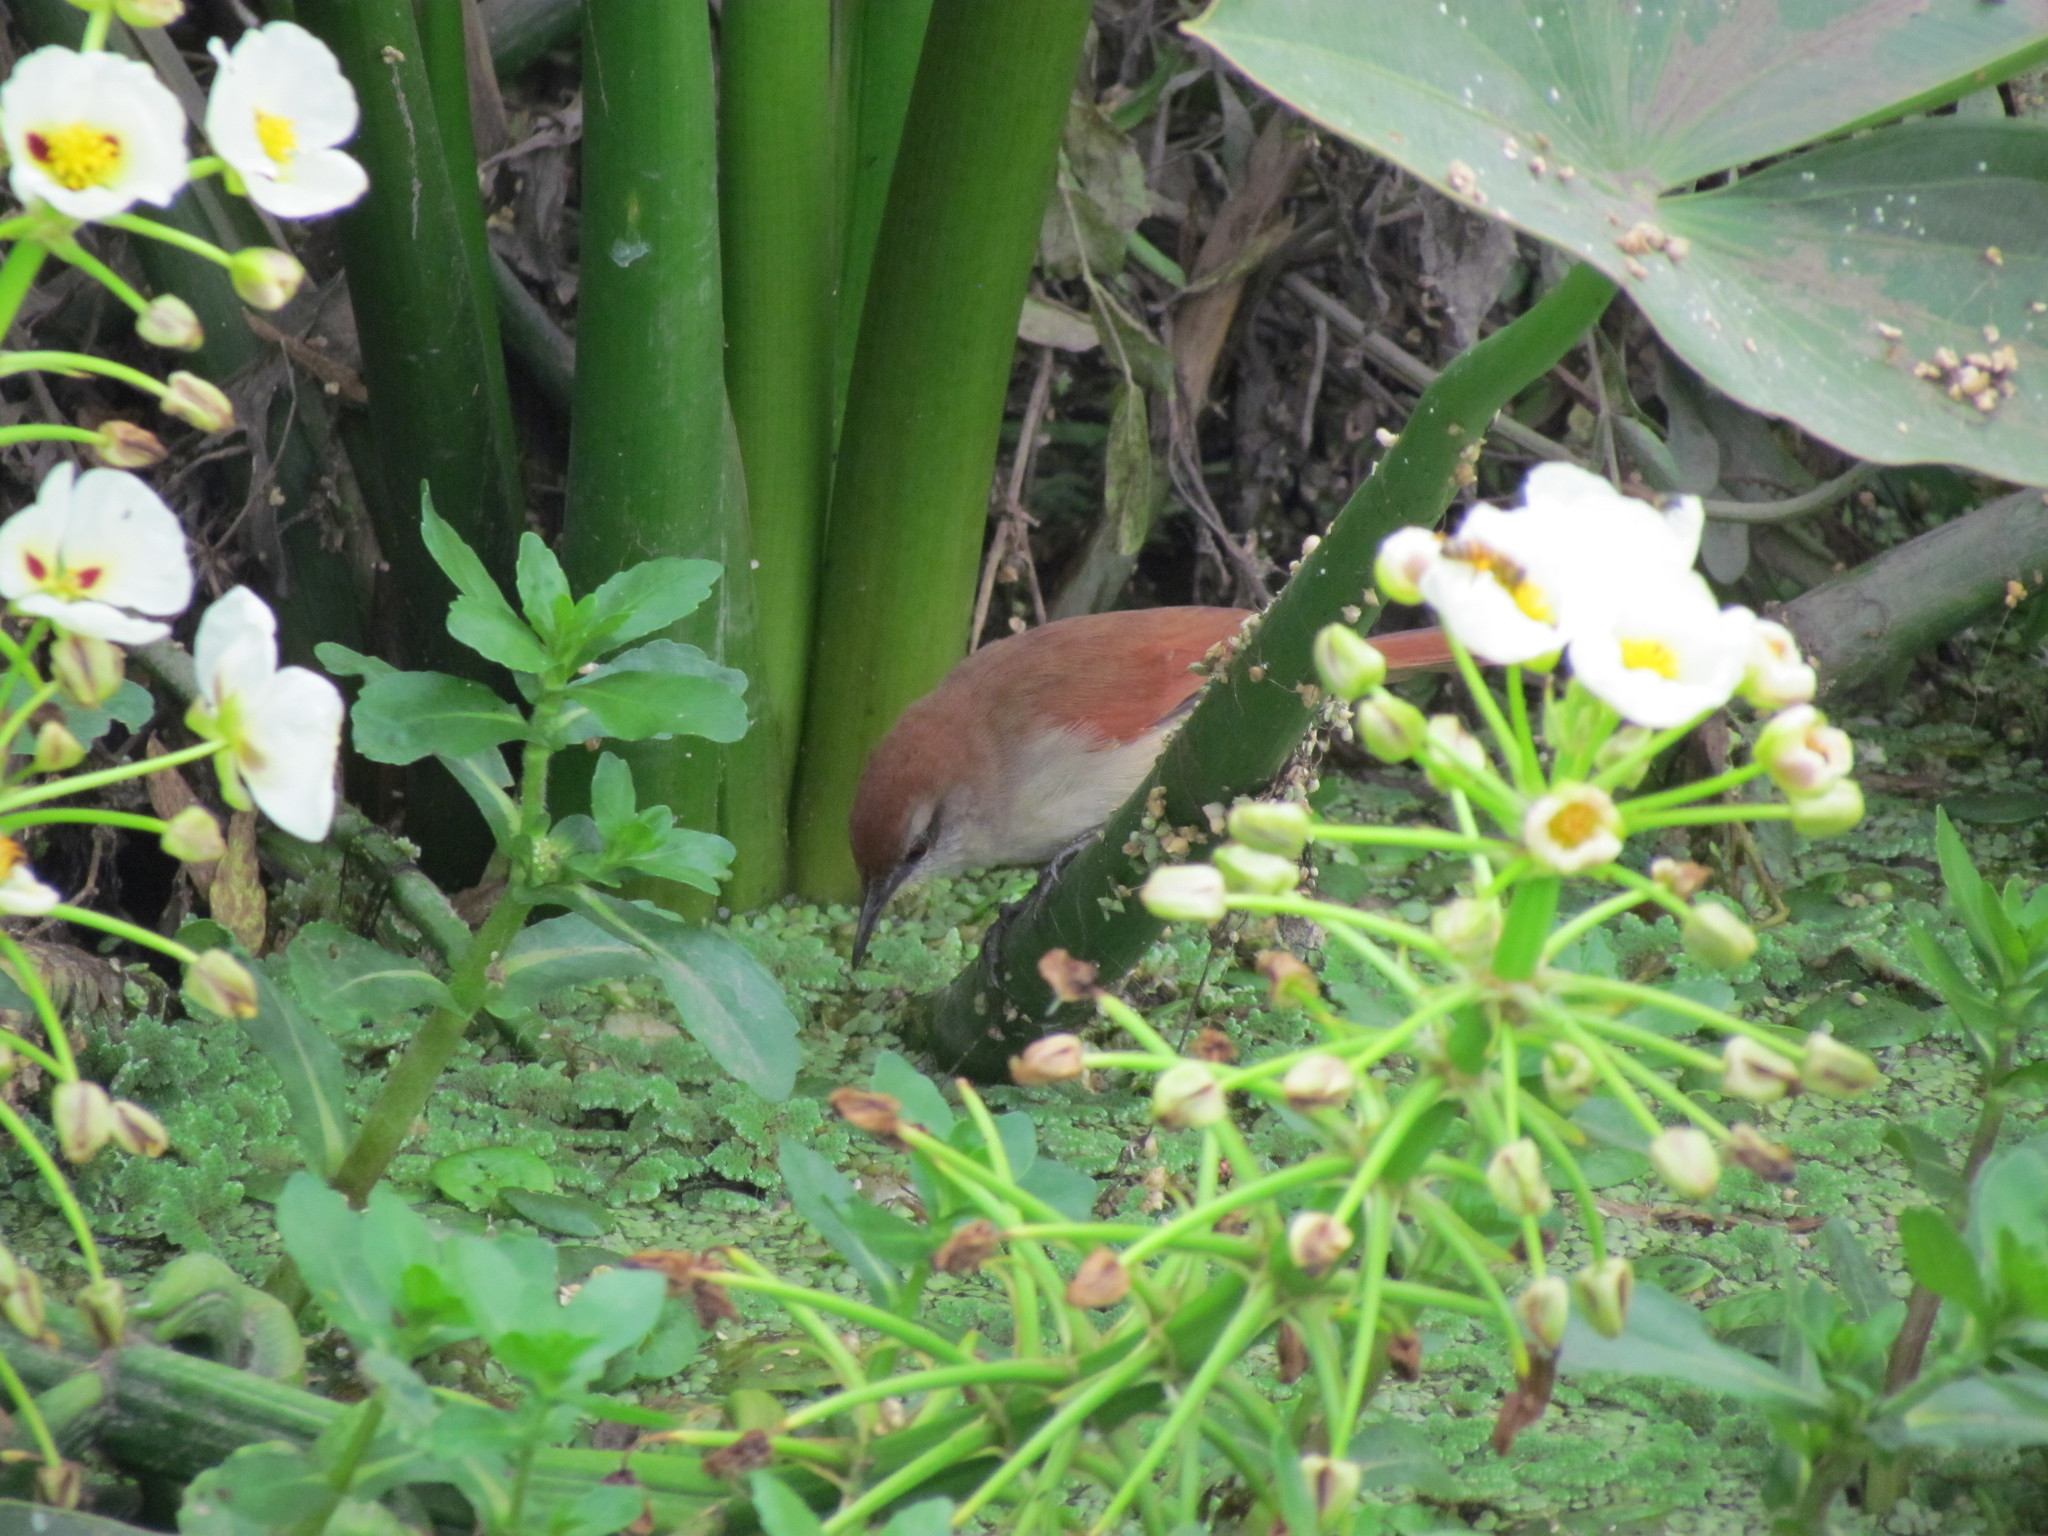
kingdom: Animalia
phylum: Chordata
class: Aves
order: Passeriformes
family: Furnariidae
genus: Certhiaxis
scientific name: Certhiaxis cinnamomeus
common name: Yellow-chinned spinetail
